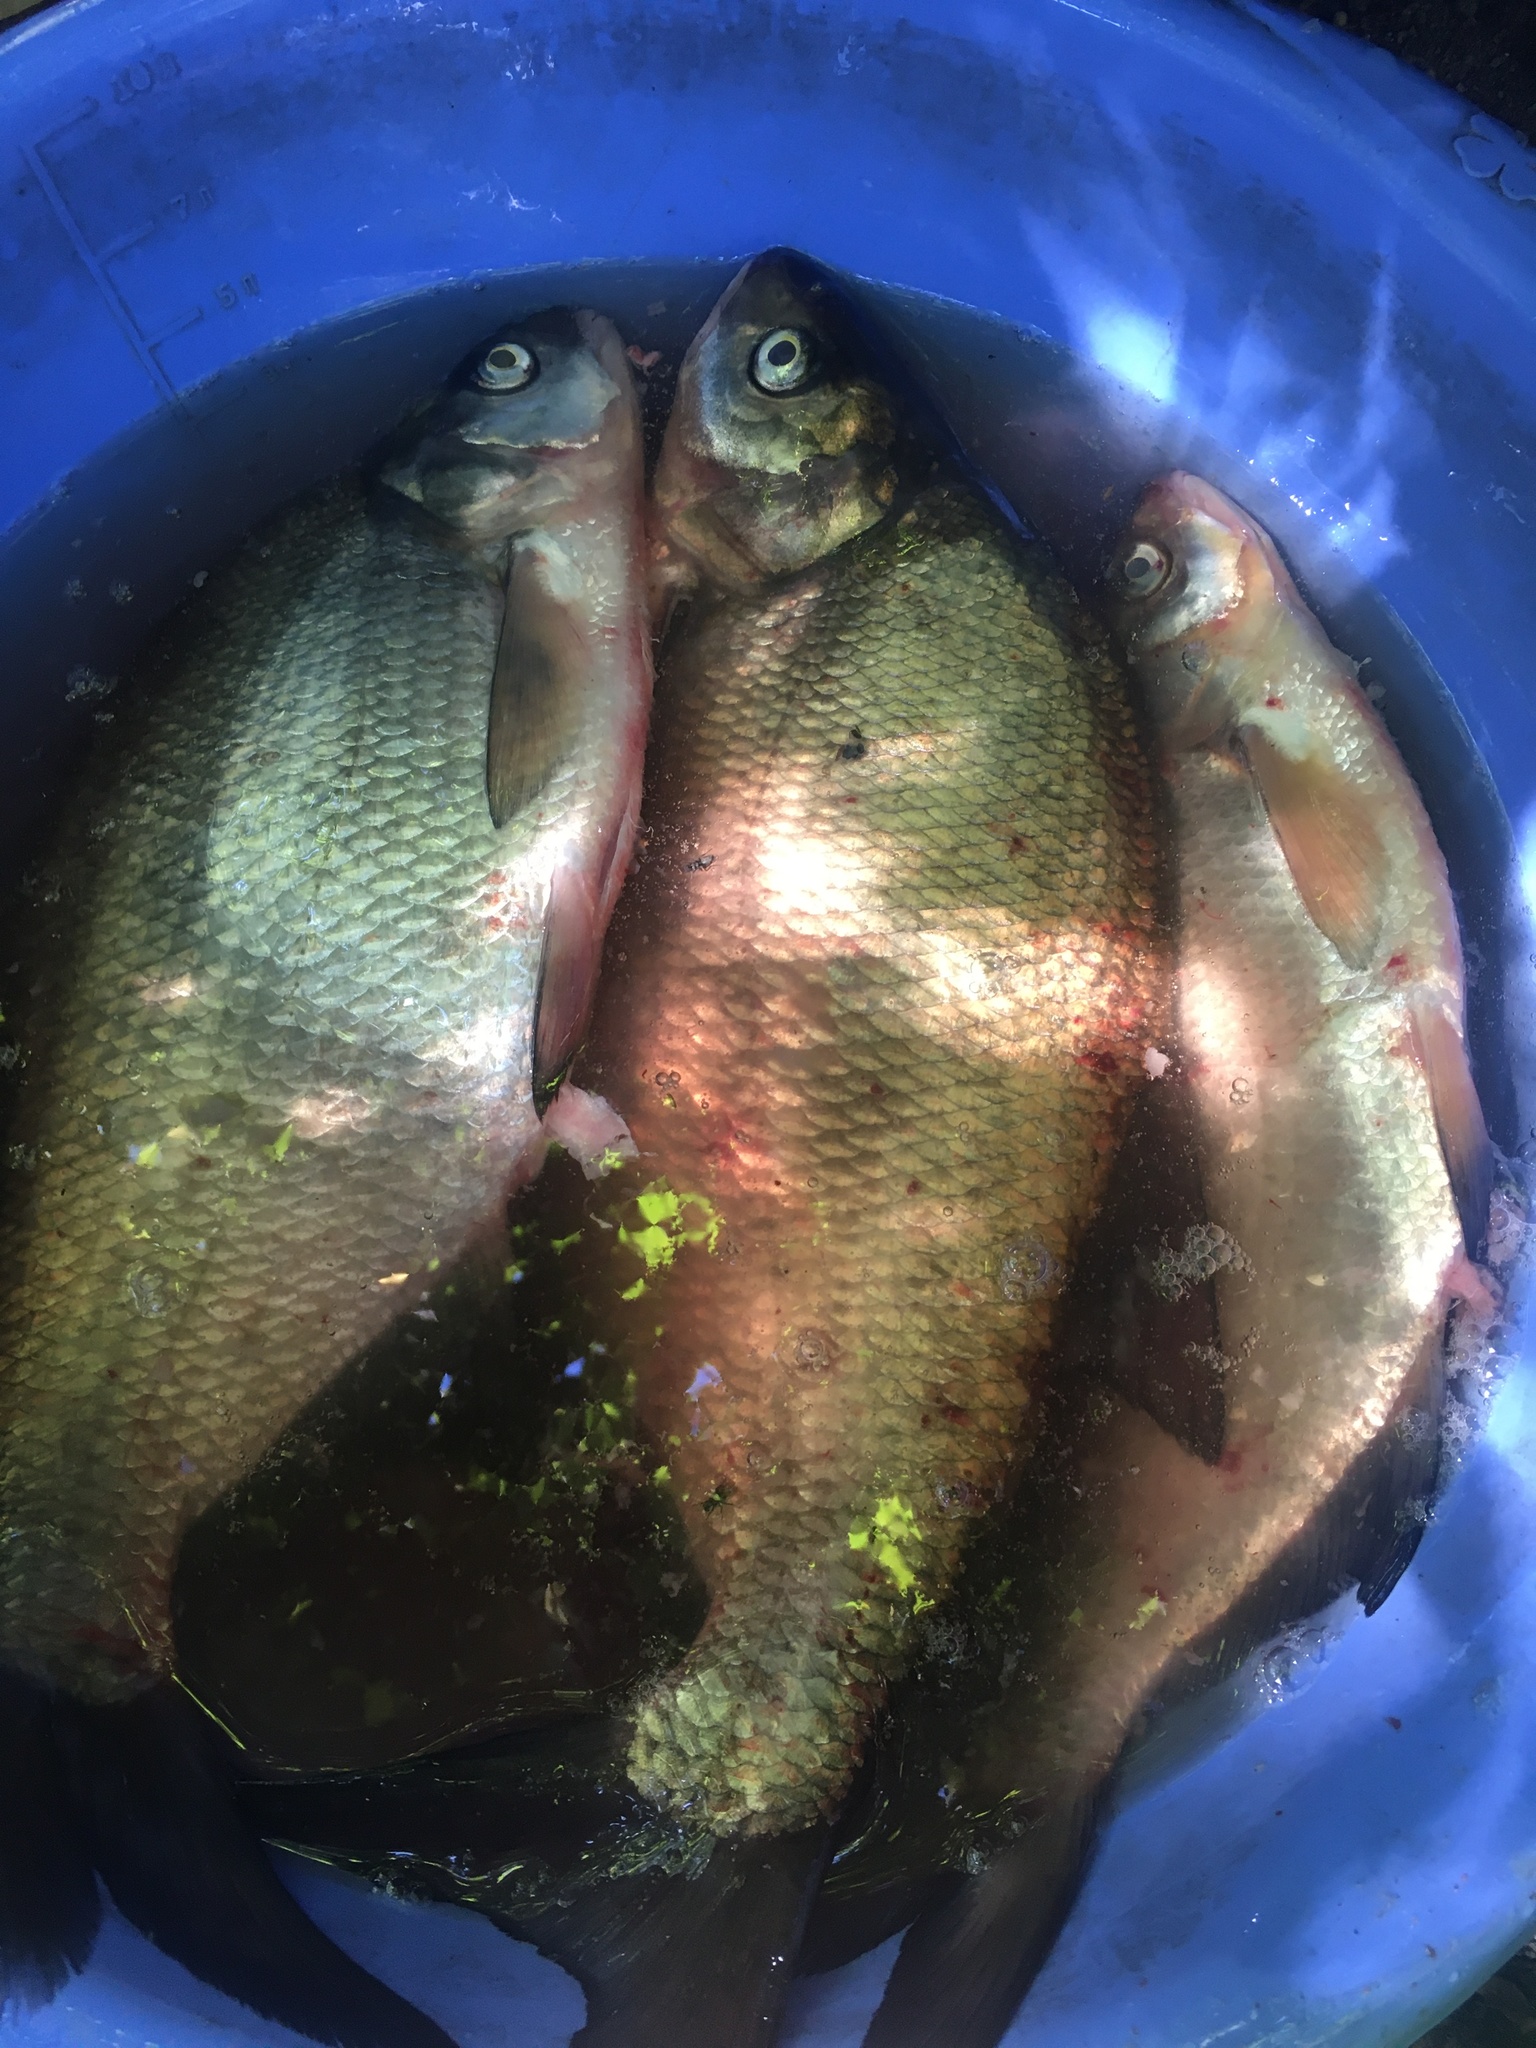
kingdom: Animalia
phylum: Chordata
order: Cypriniformes
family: Cyprinidae
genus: Abramis
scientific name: Abramis brama
